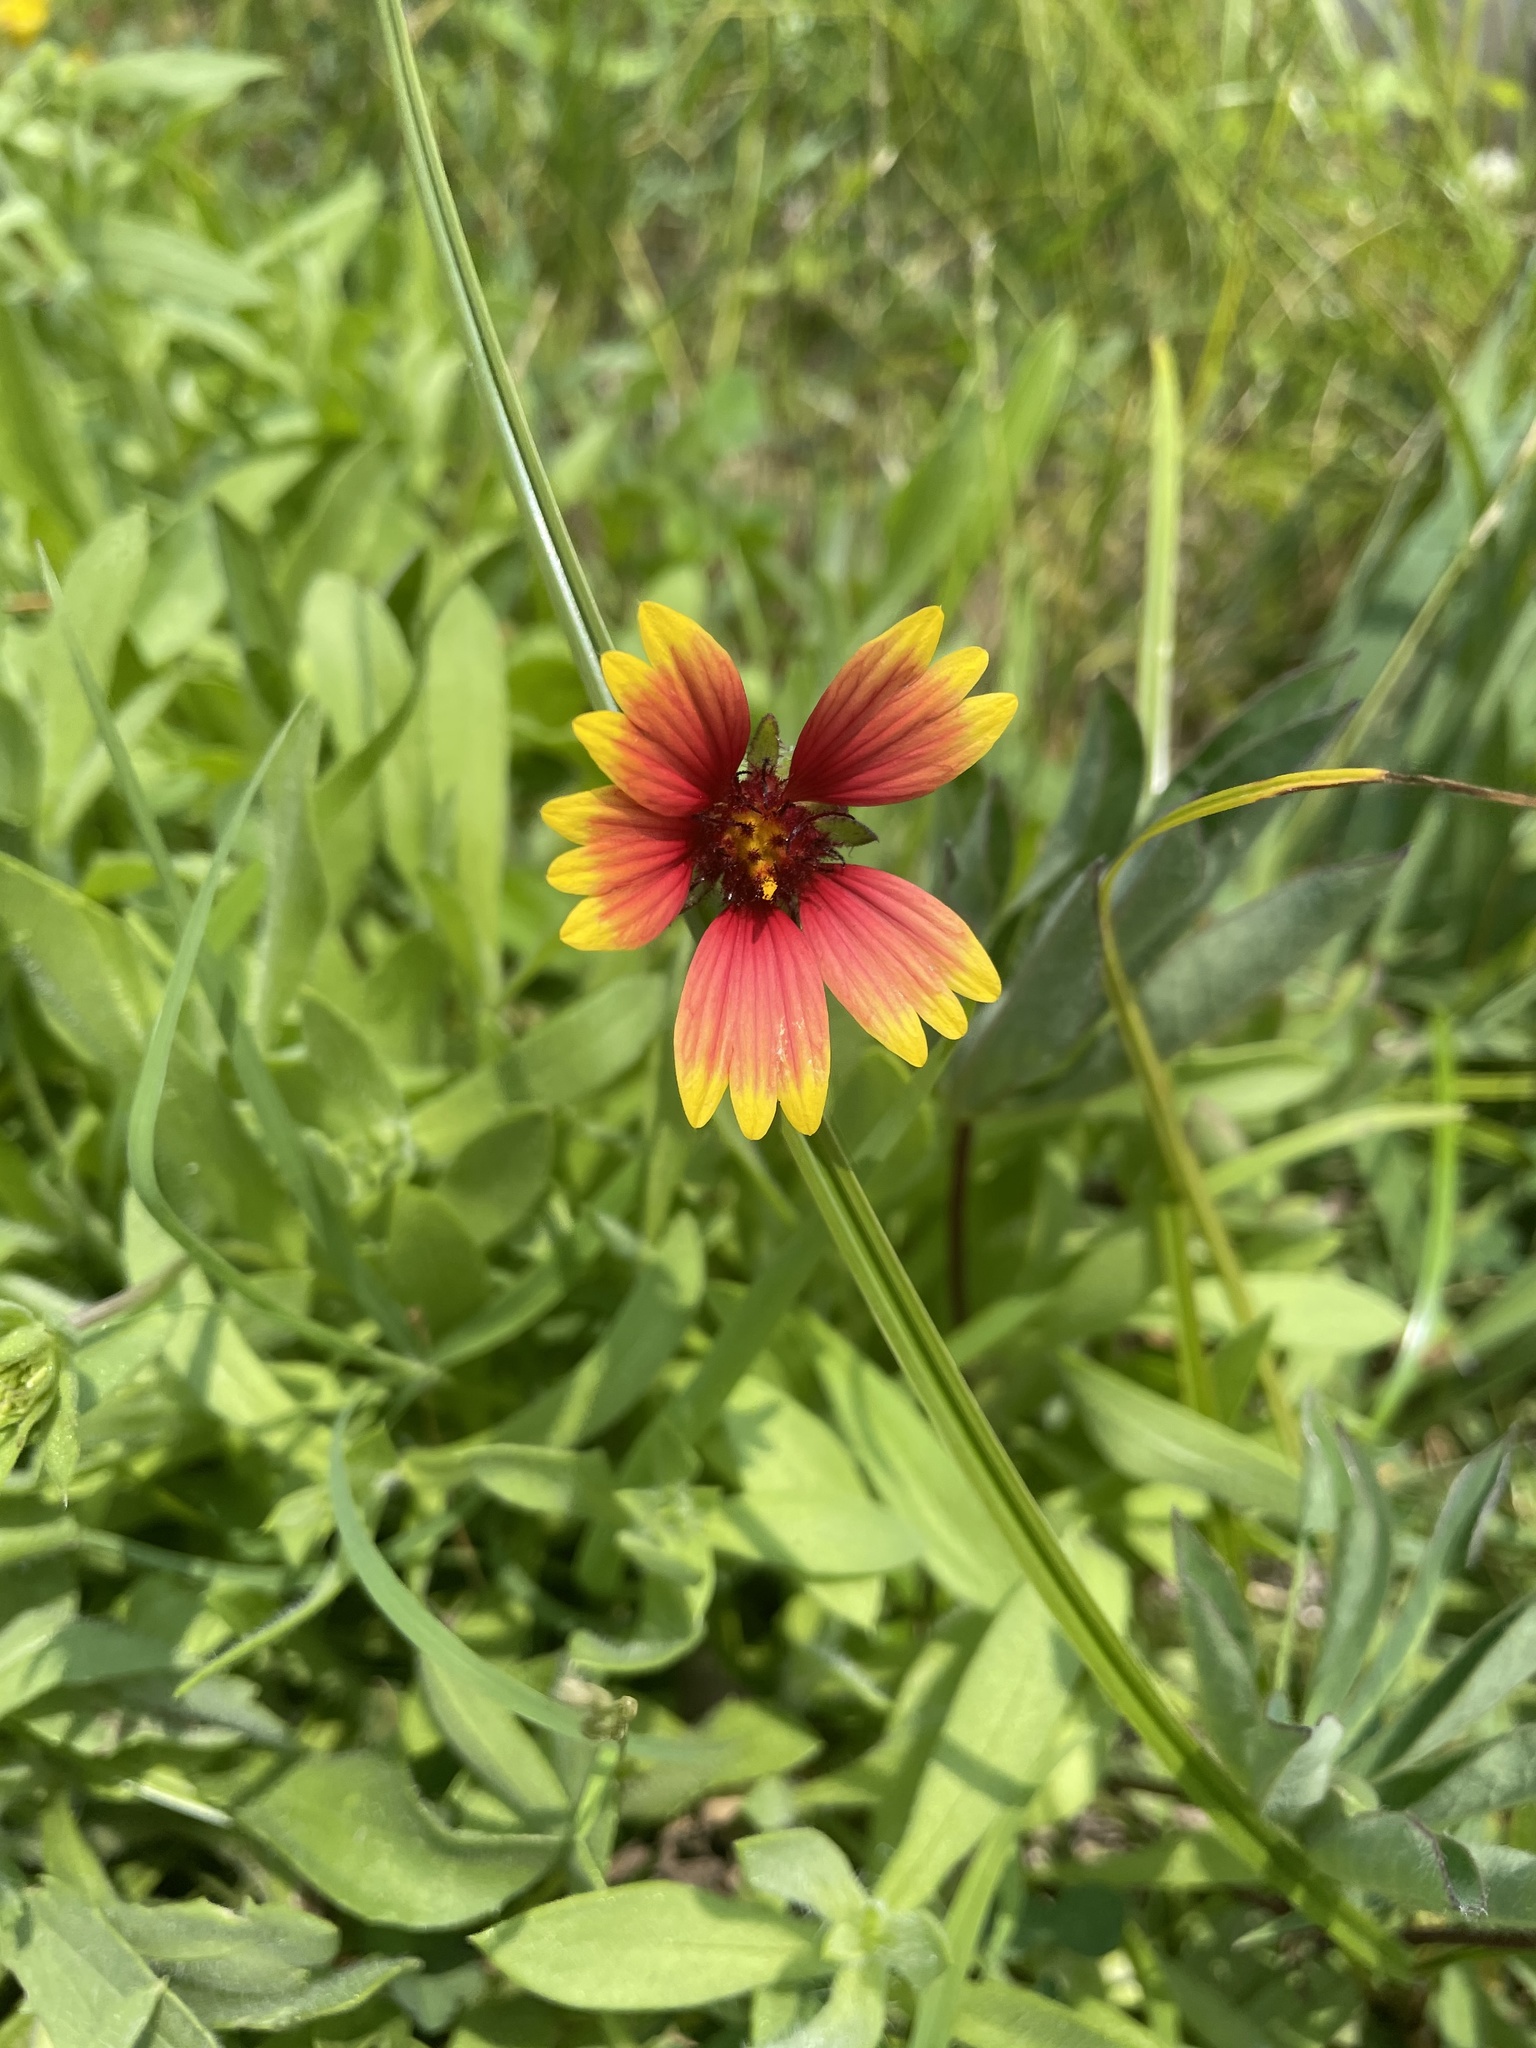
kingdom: Plantae
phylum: Tracheophyta
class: Magnoliopsida
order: Asterales
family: Asteraceae
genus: Gaillardia
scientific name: Gaillardia pulchella
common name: Firewheel
